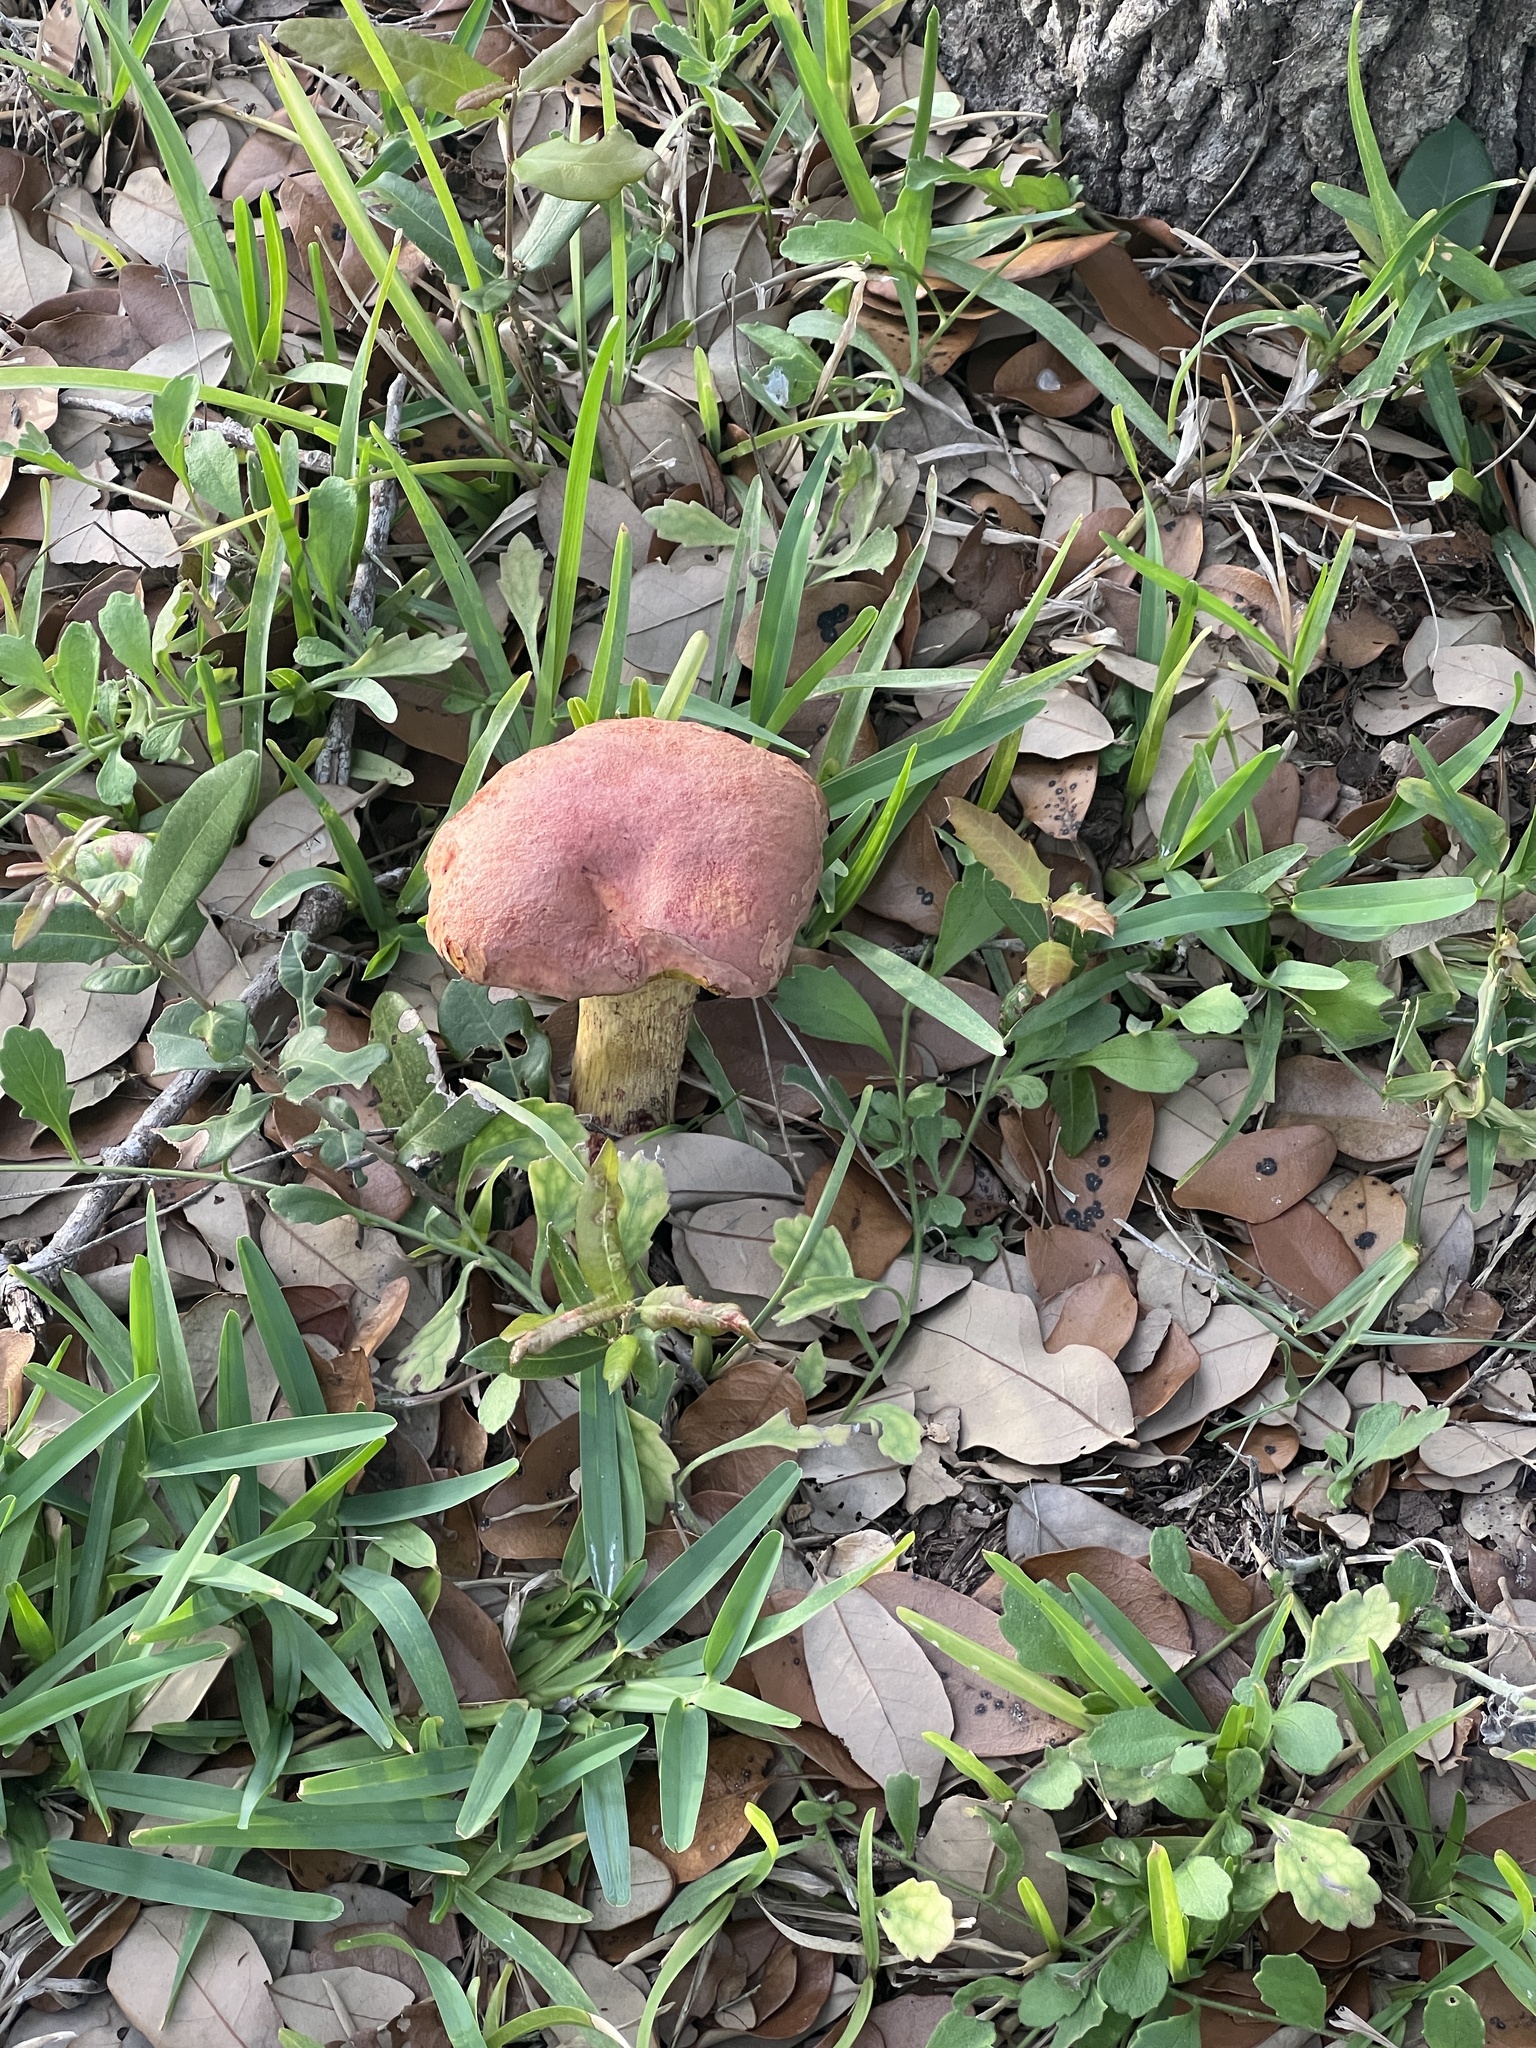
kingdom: Fungi
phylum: Basidiomycota
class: Agaricomycetes
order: Boletales
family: Boletaceae
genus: Pulchroboletus
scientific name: Pulchroboletus rubricitrinus
